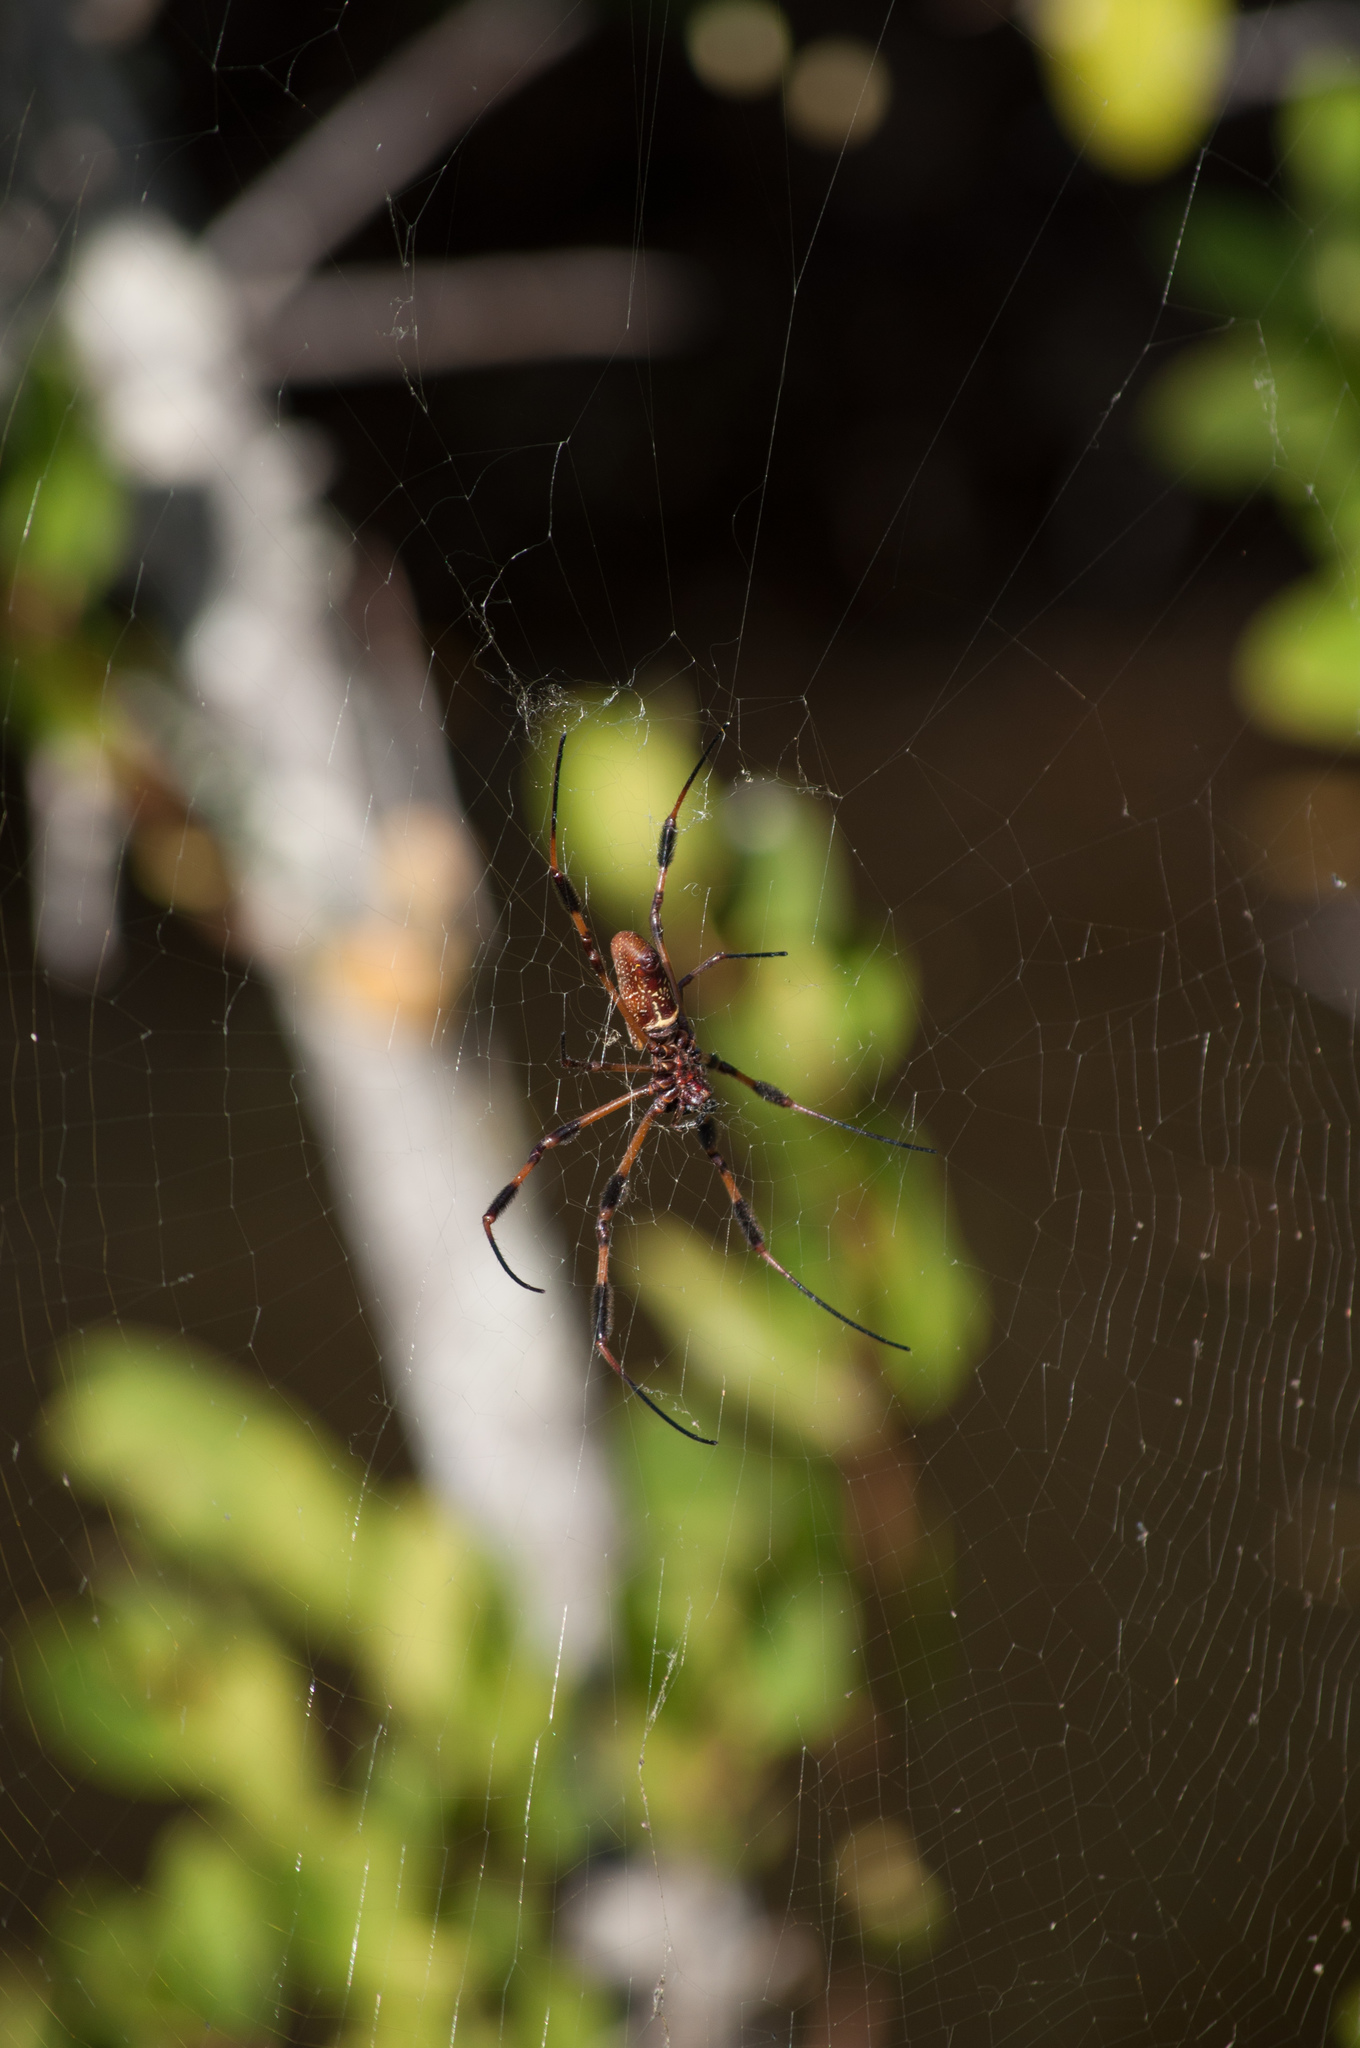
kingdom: Animalia
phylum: Arthropoda
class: Arachnida
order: Araneae
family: Araneidae
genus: Trichonephila
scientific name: Trichonephila clavipes
